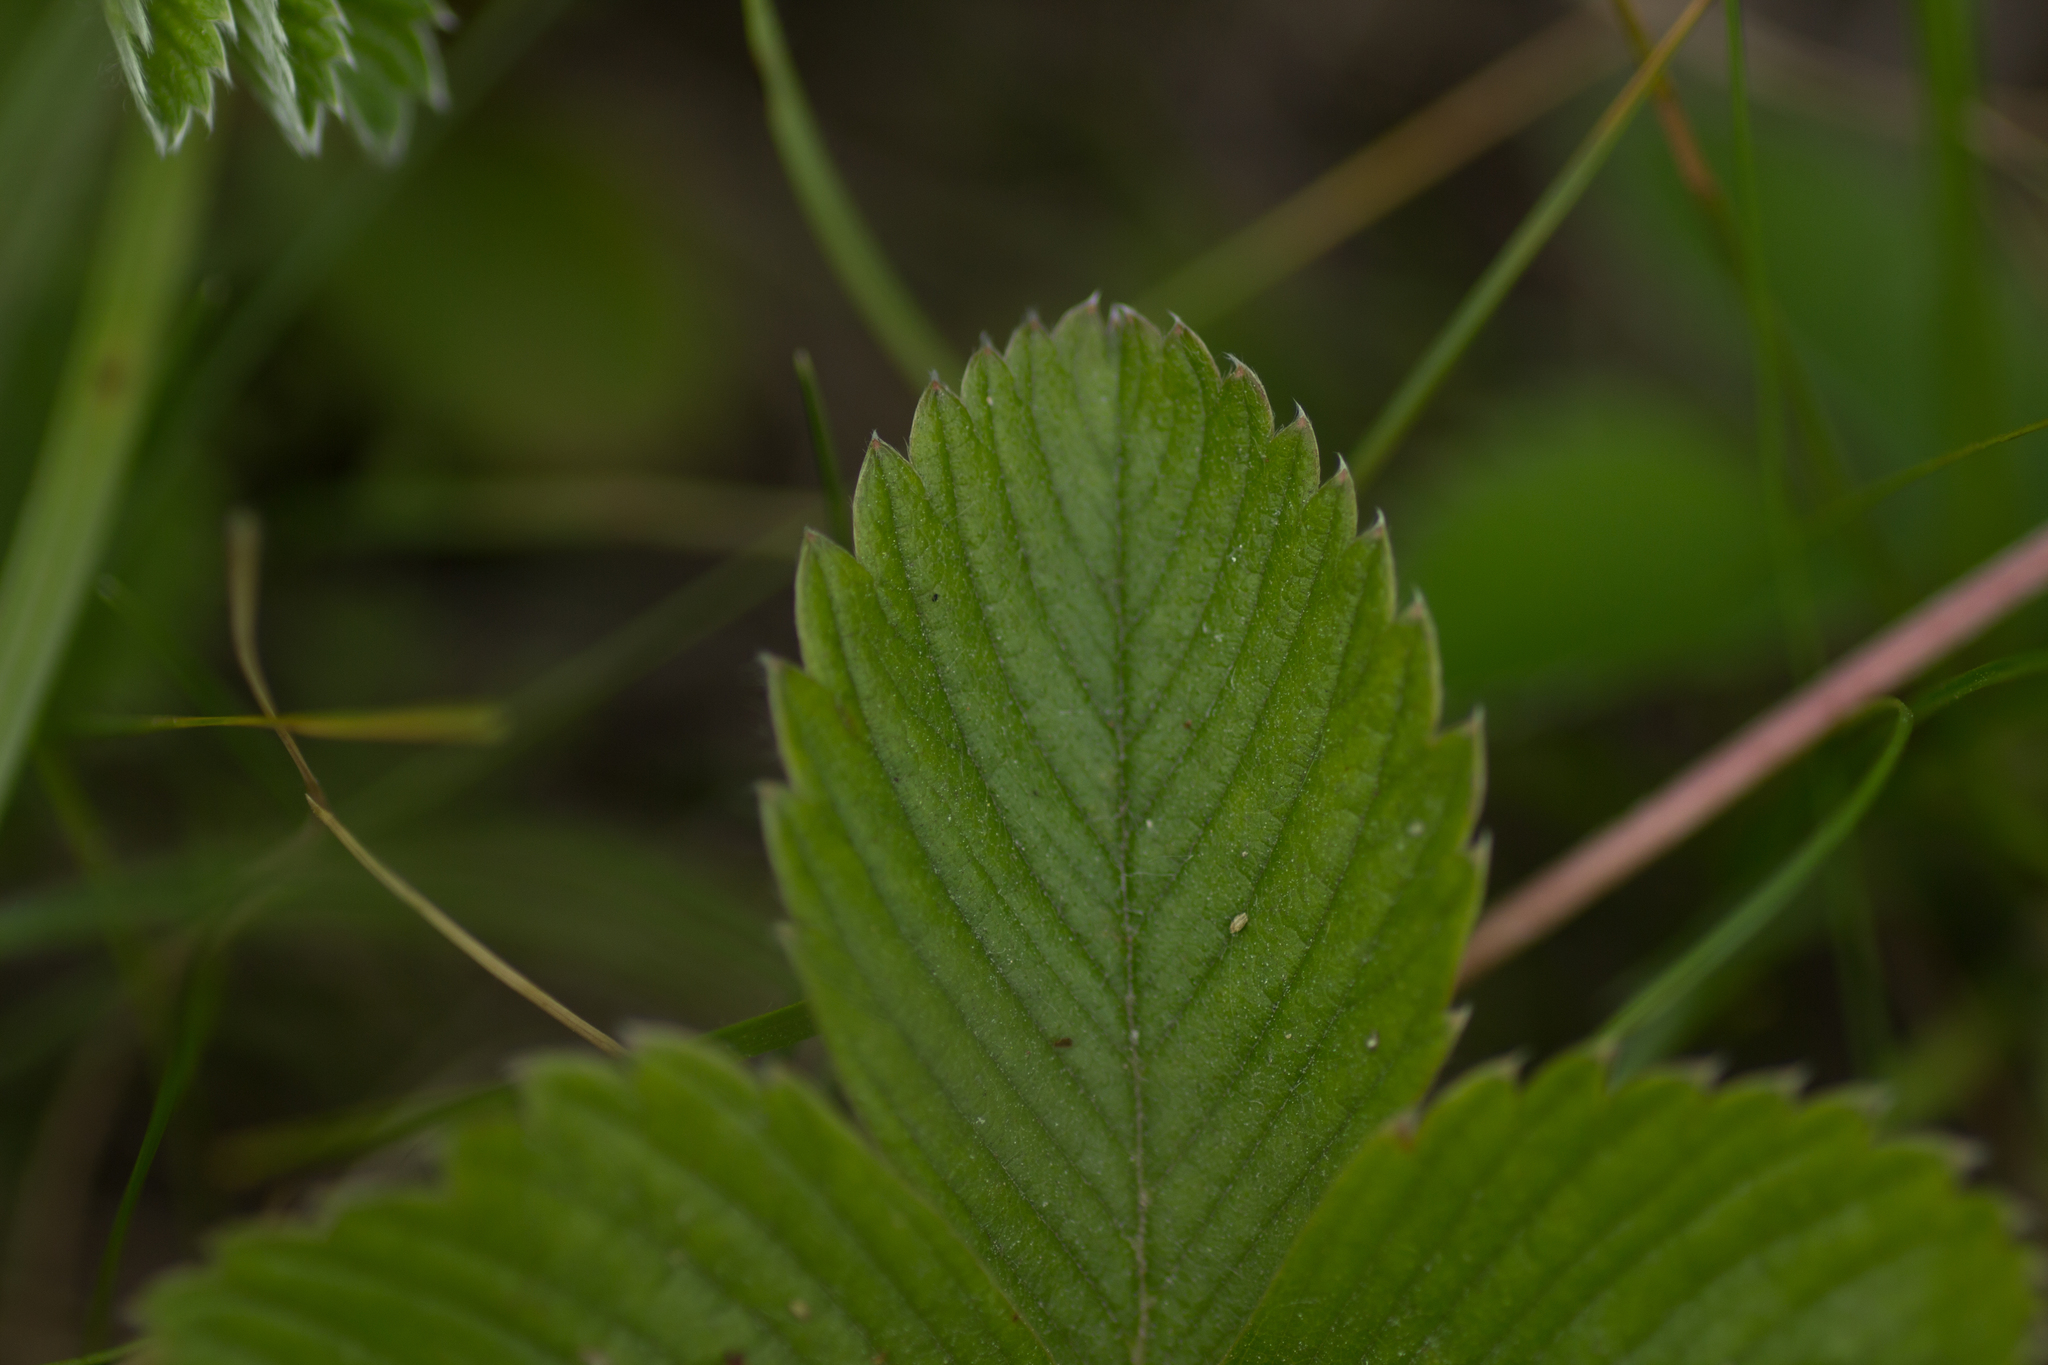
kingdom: Plantae
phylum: Tracheophyta
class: Magnoliopsida
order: Rosales
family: Rosaceae
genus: Fragaria
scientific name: Fragaria viridis
